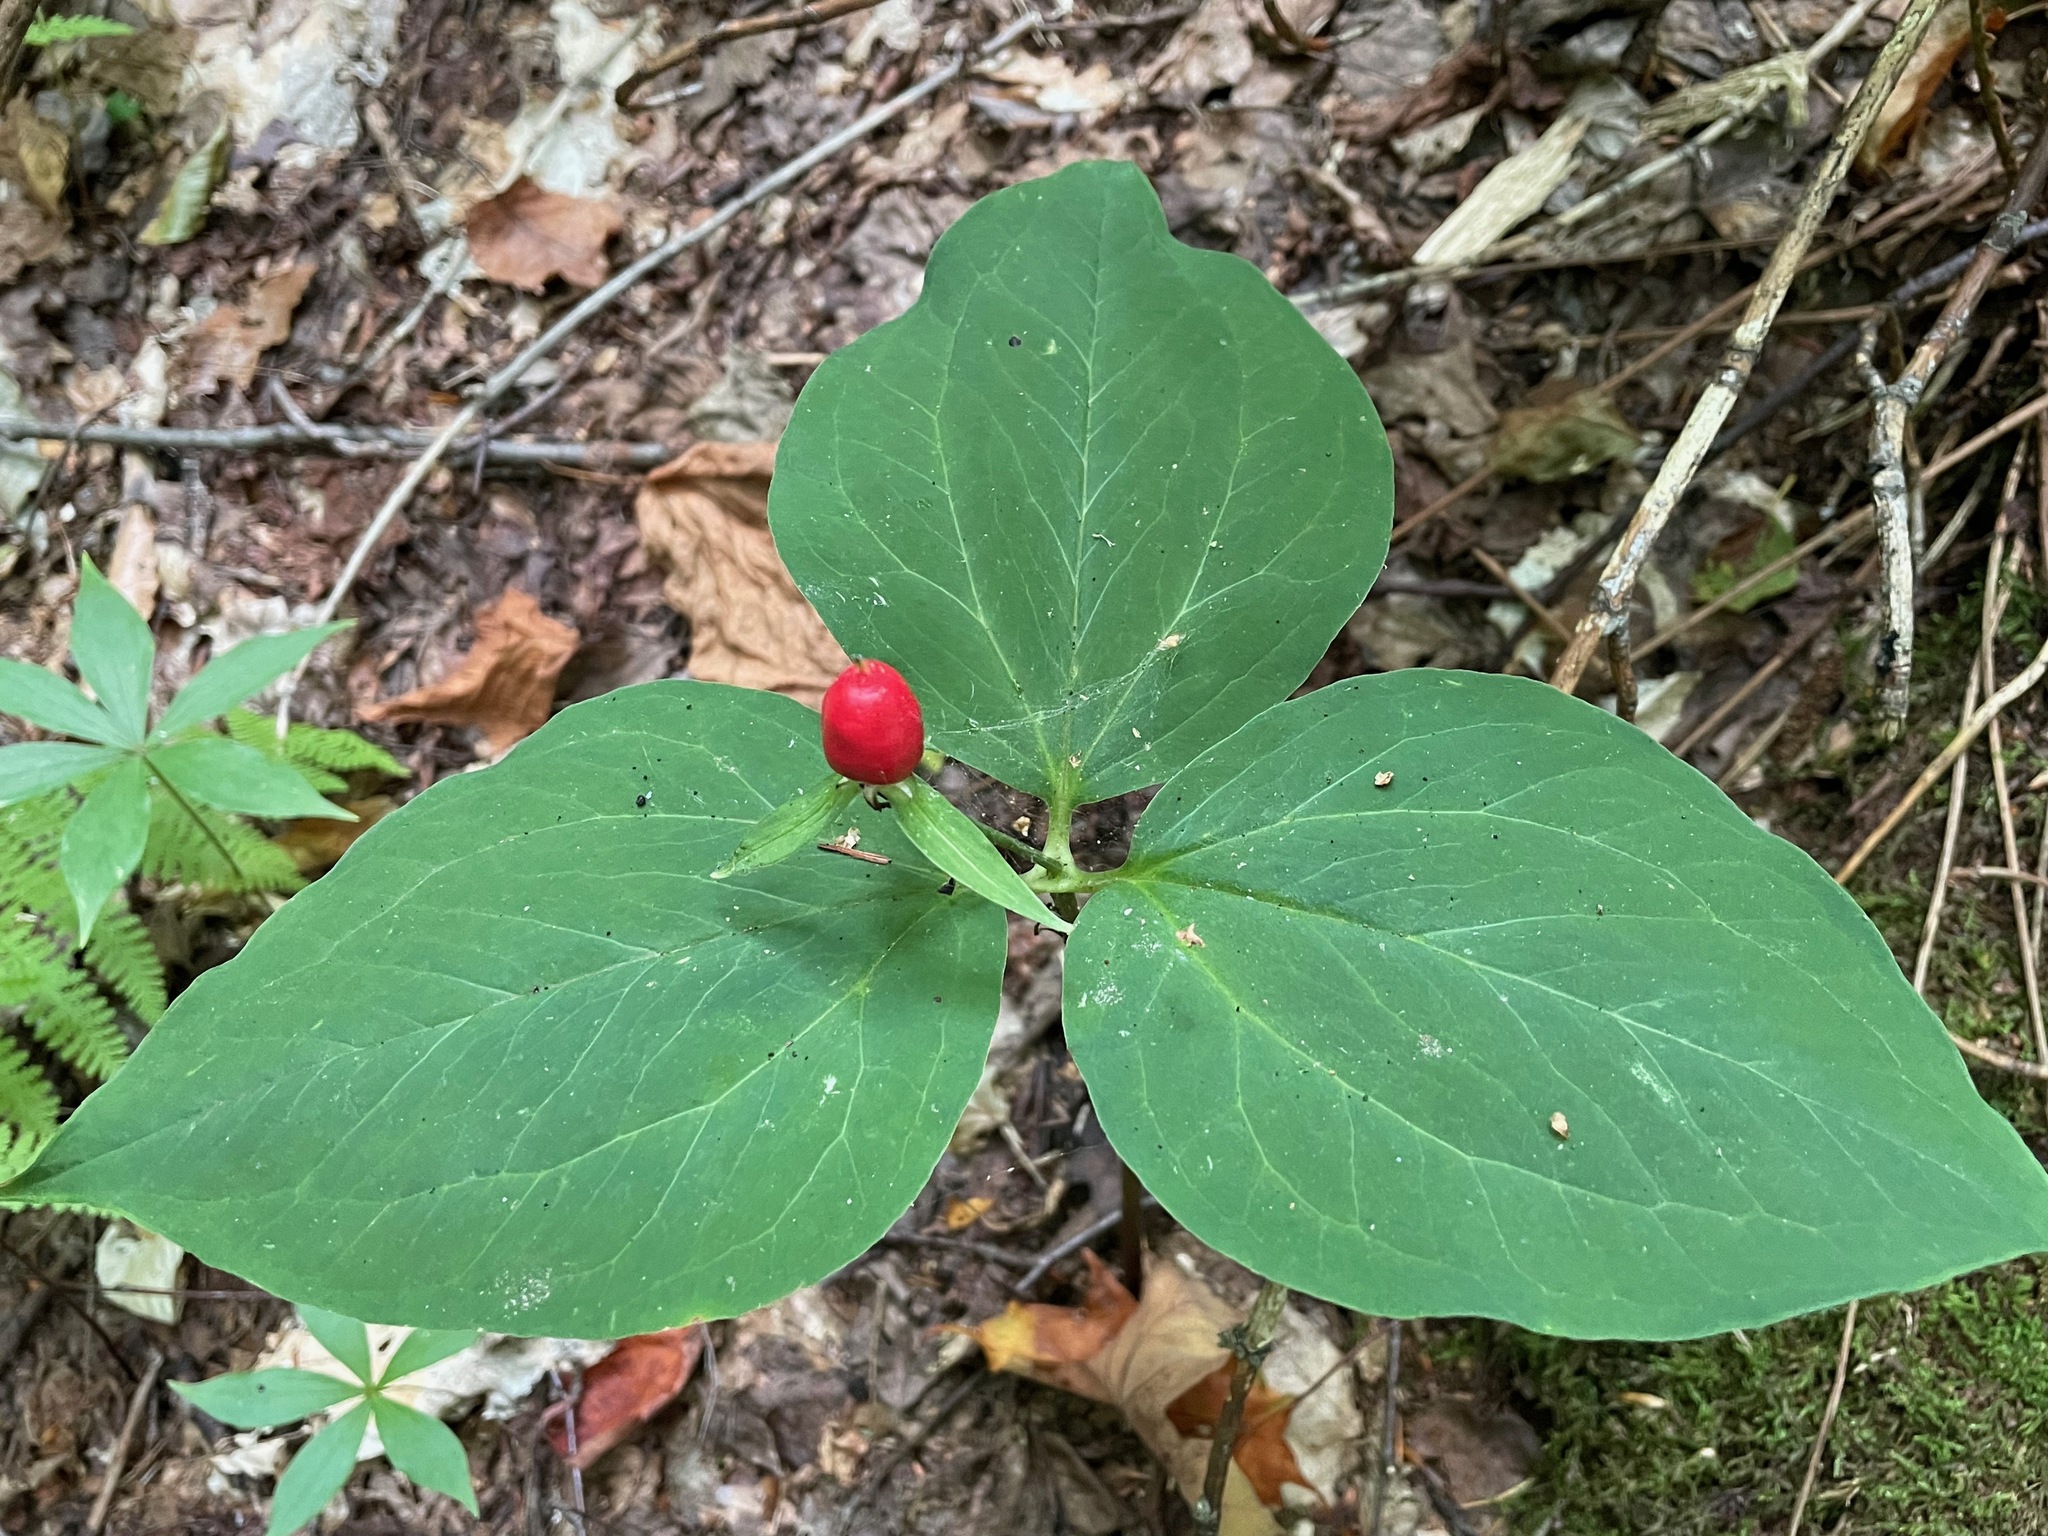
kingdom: Plantae
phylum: Tracheophyta
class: Liliopsida
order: Liliales
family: Melanthiaceae
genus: Trillium
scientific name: Trillium undulatum
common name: Paint trillium
